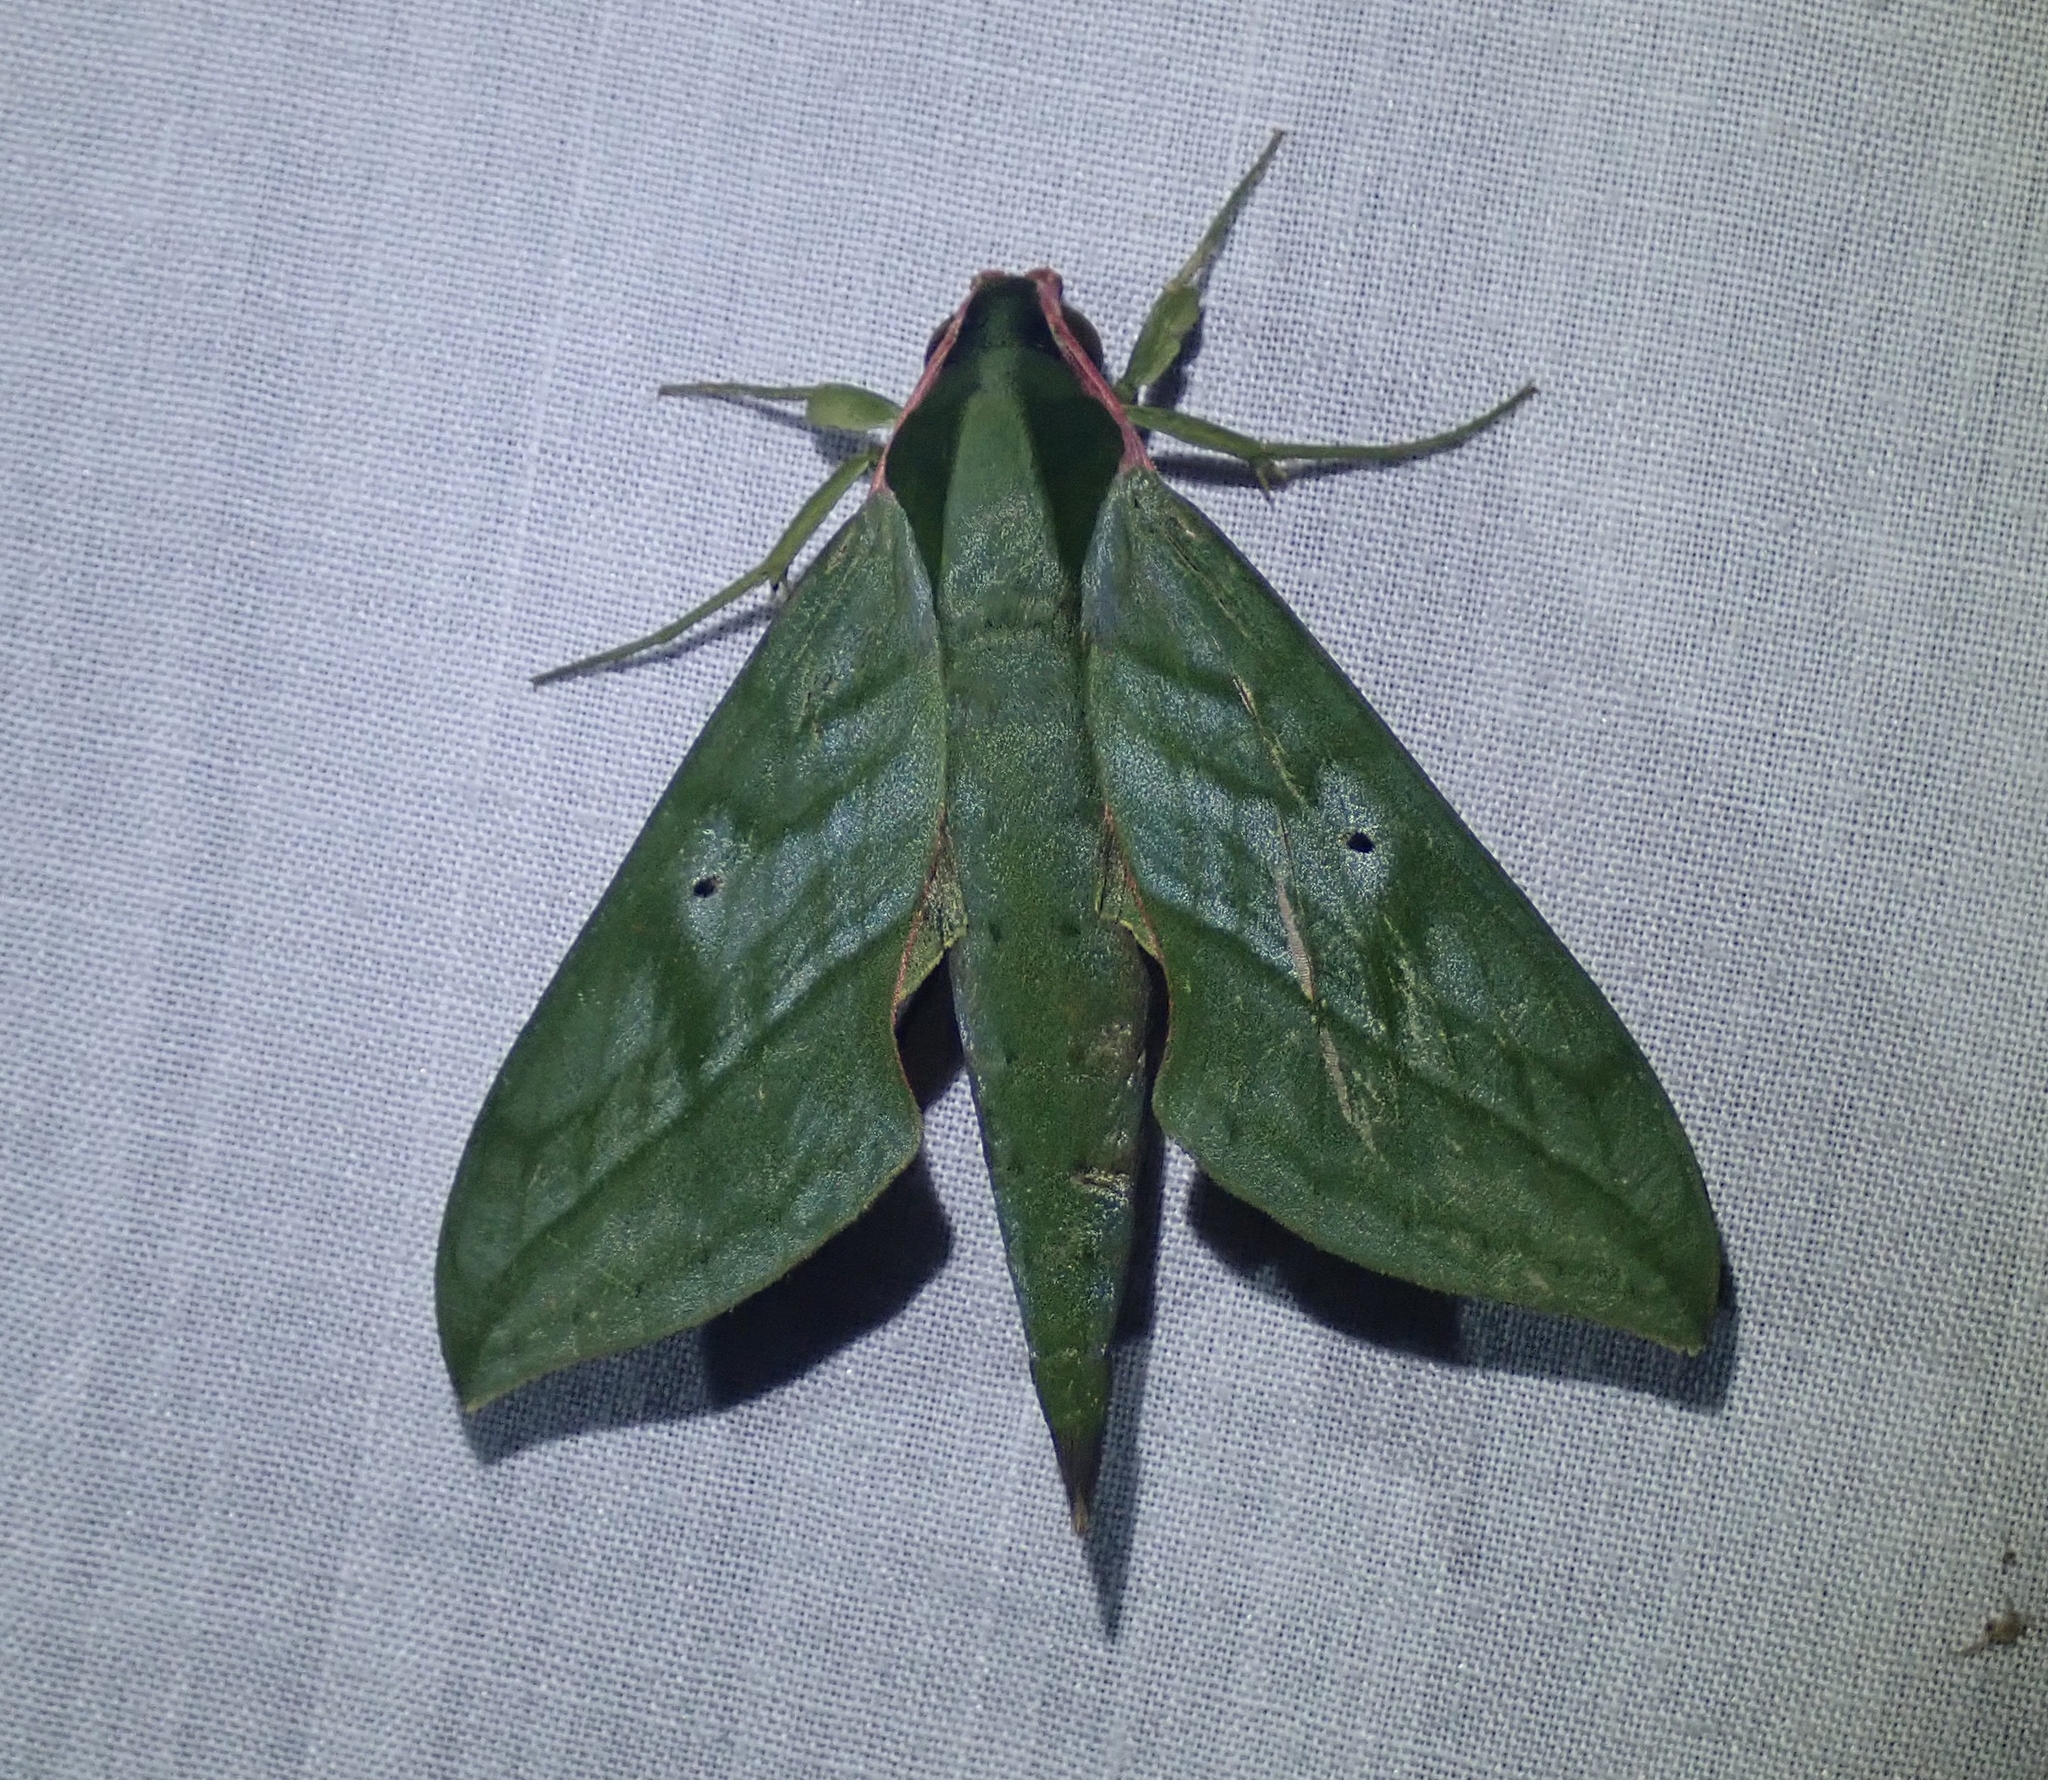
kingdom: Animalia
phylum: Arthropoda
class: Insecta
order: Lepidoptera
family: Sphingidae
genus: Xylophanes
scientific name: Xylophanes belti
